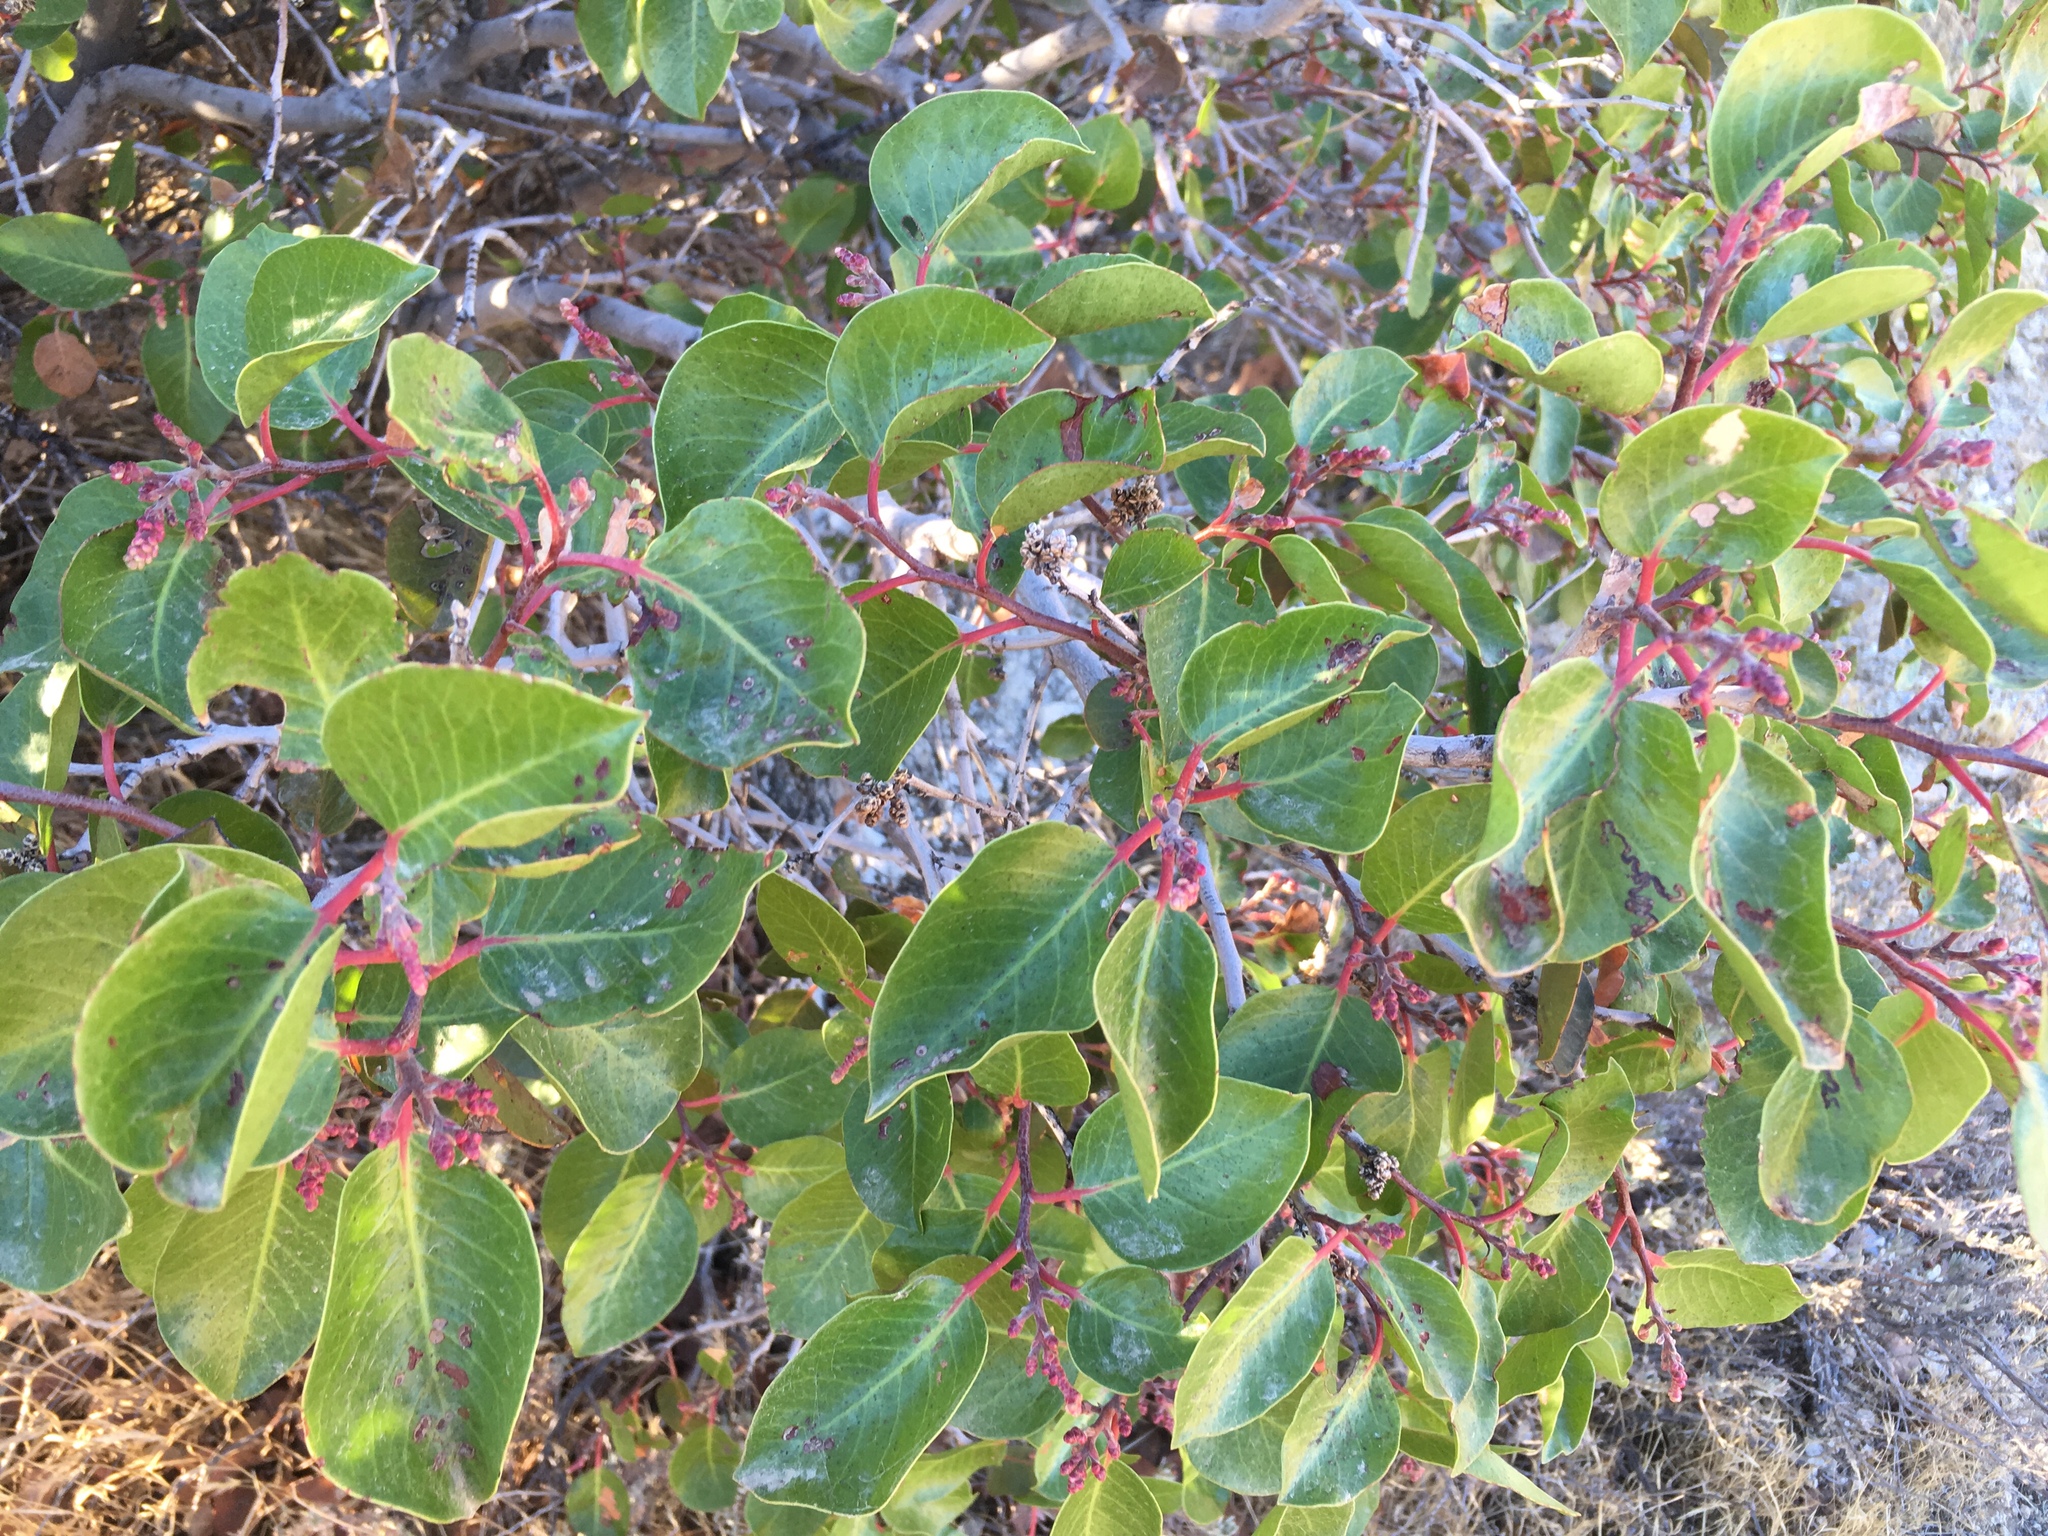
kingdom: Plantae
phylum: Tracheophyta
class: Magnoliopsida
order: Sapindales
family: Anacardiaceae
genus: Rhus
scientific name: Rhus ovata
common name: Sugar sumac
